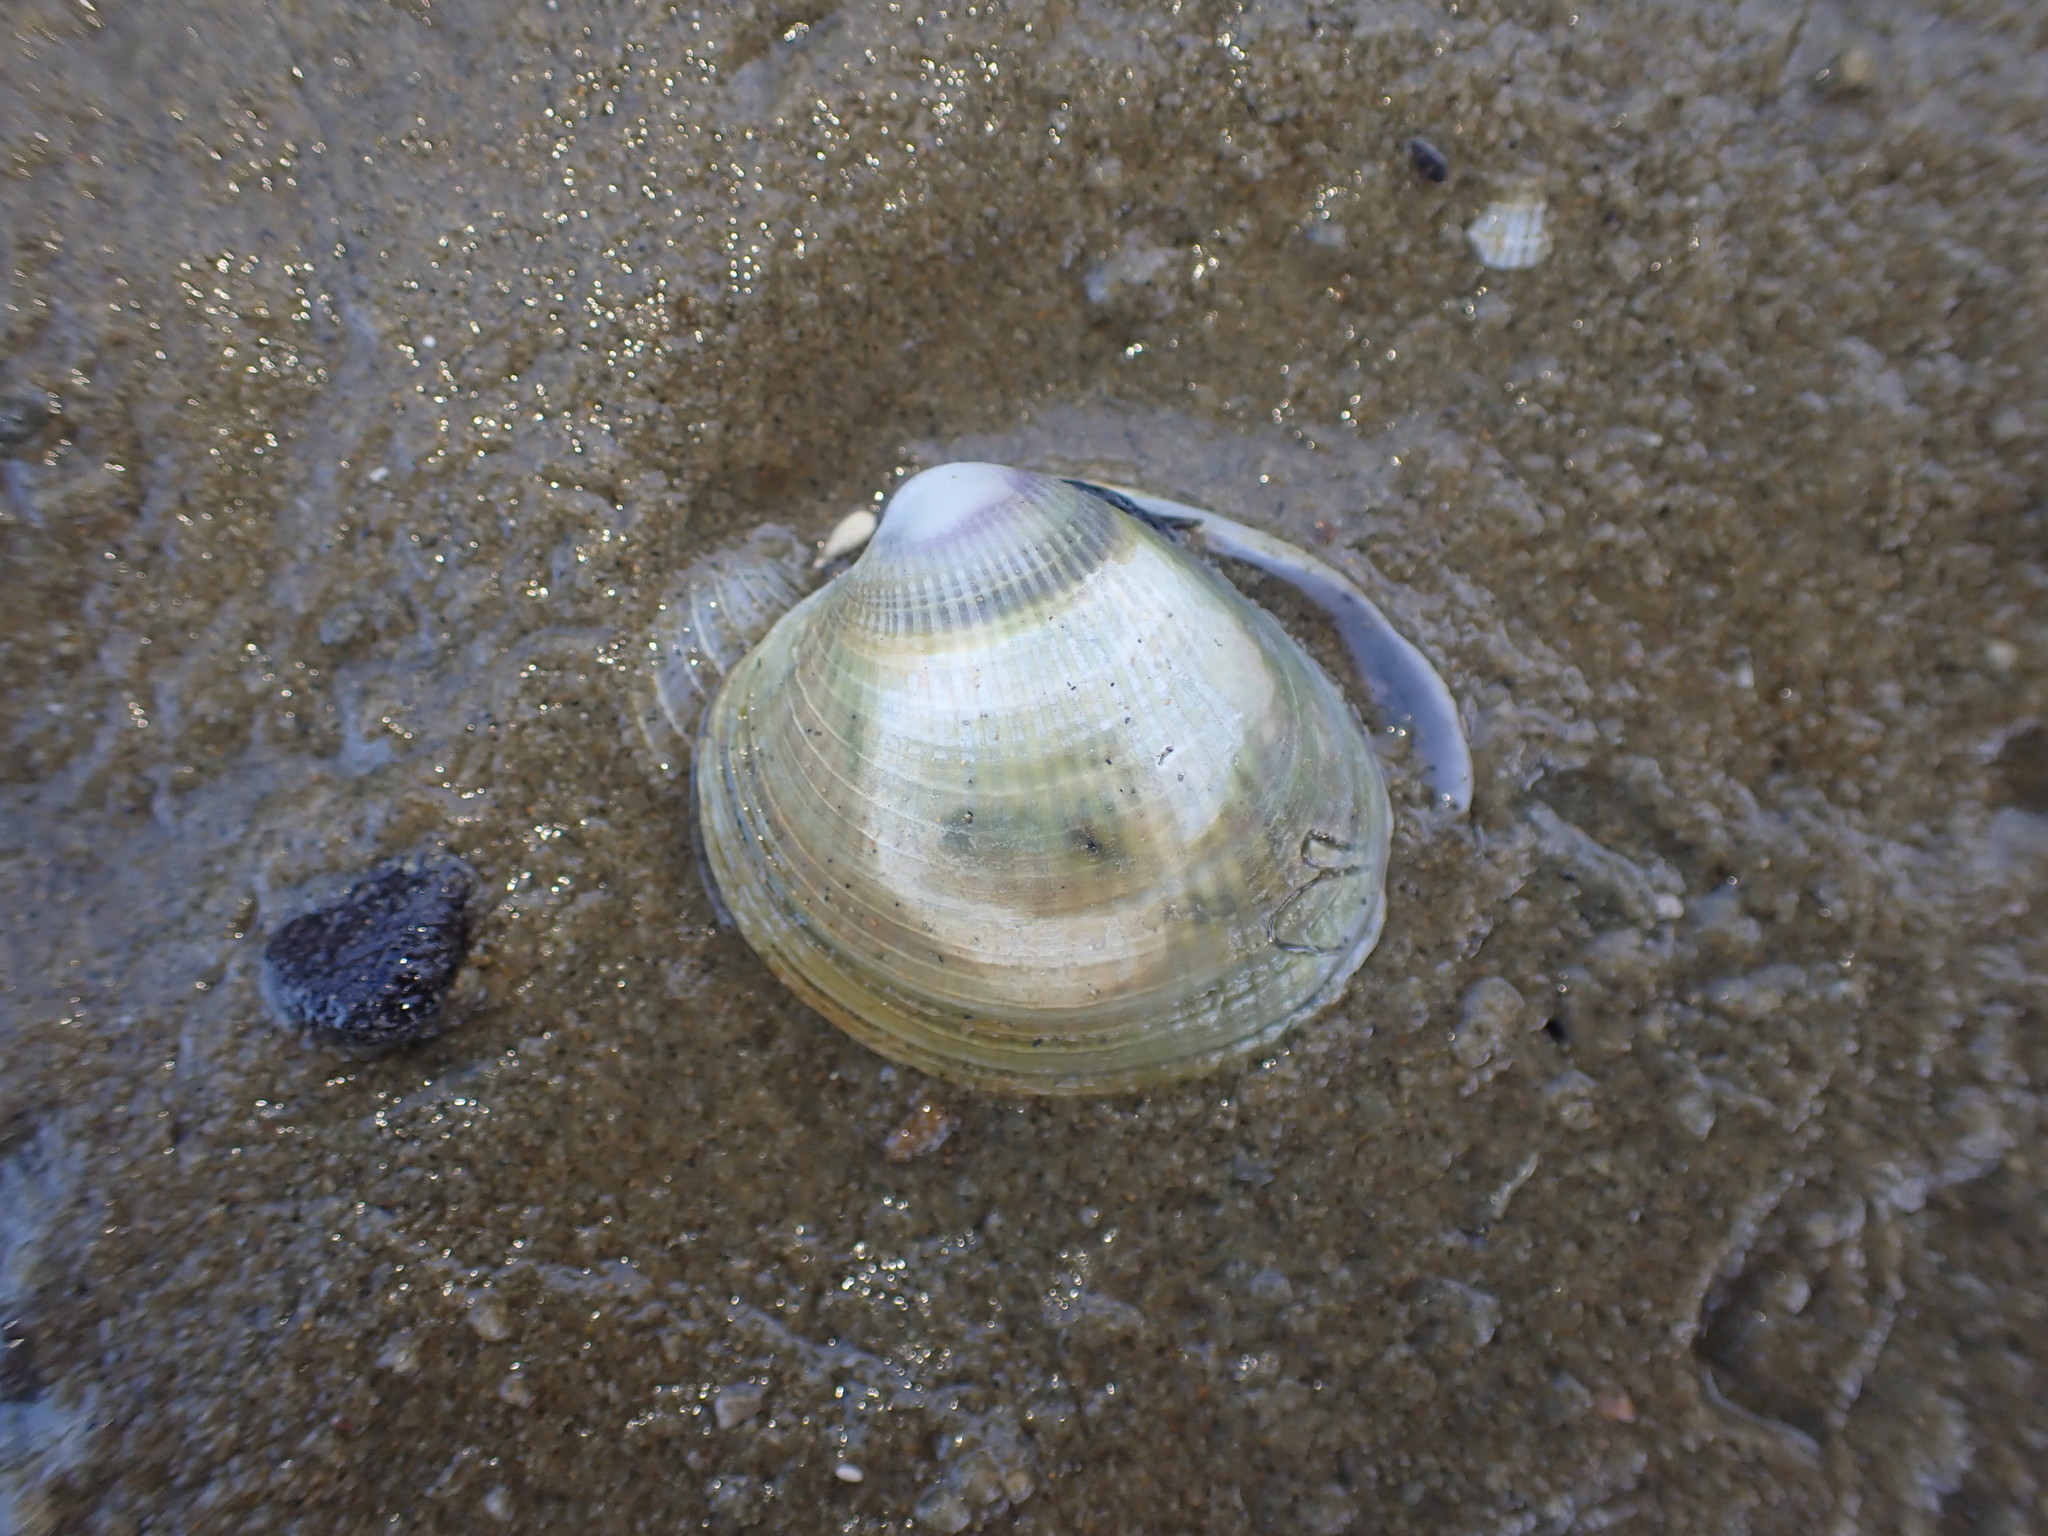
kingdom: Animalia
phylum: Mollusca
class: Bivalvia
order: Venerida
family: Veneridae
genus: Austrovenus
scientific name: Austrovenus stutchburyi
